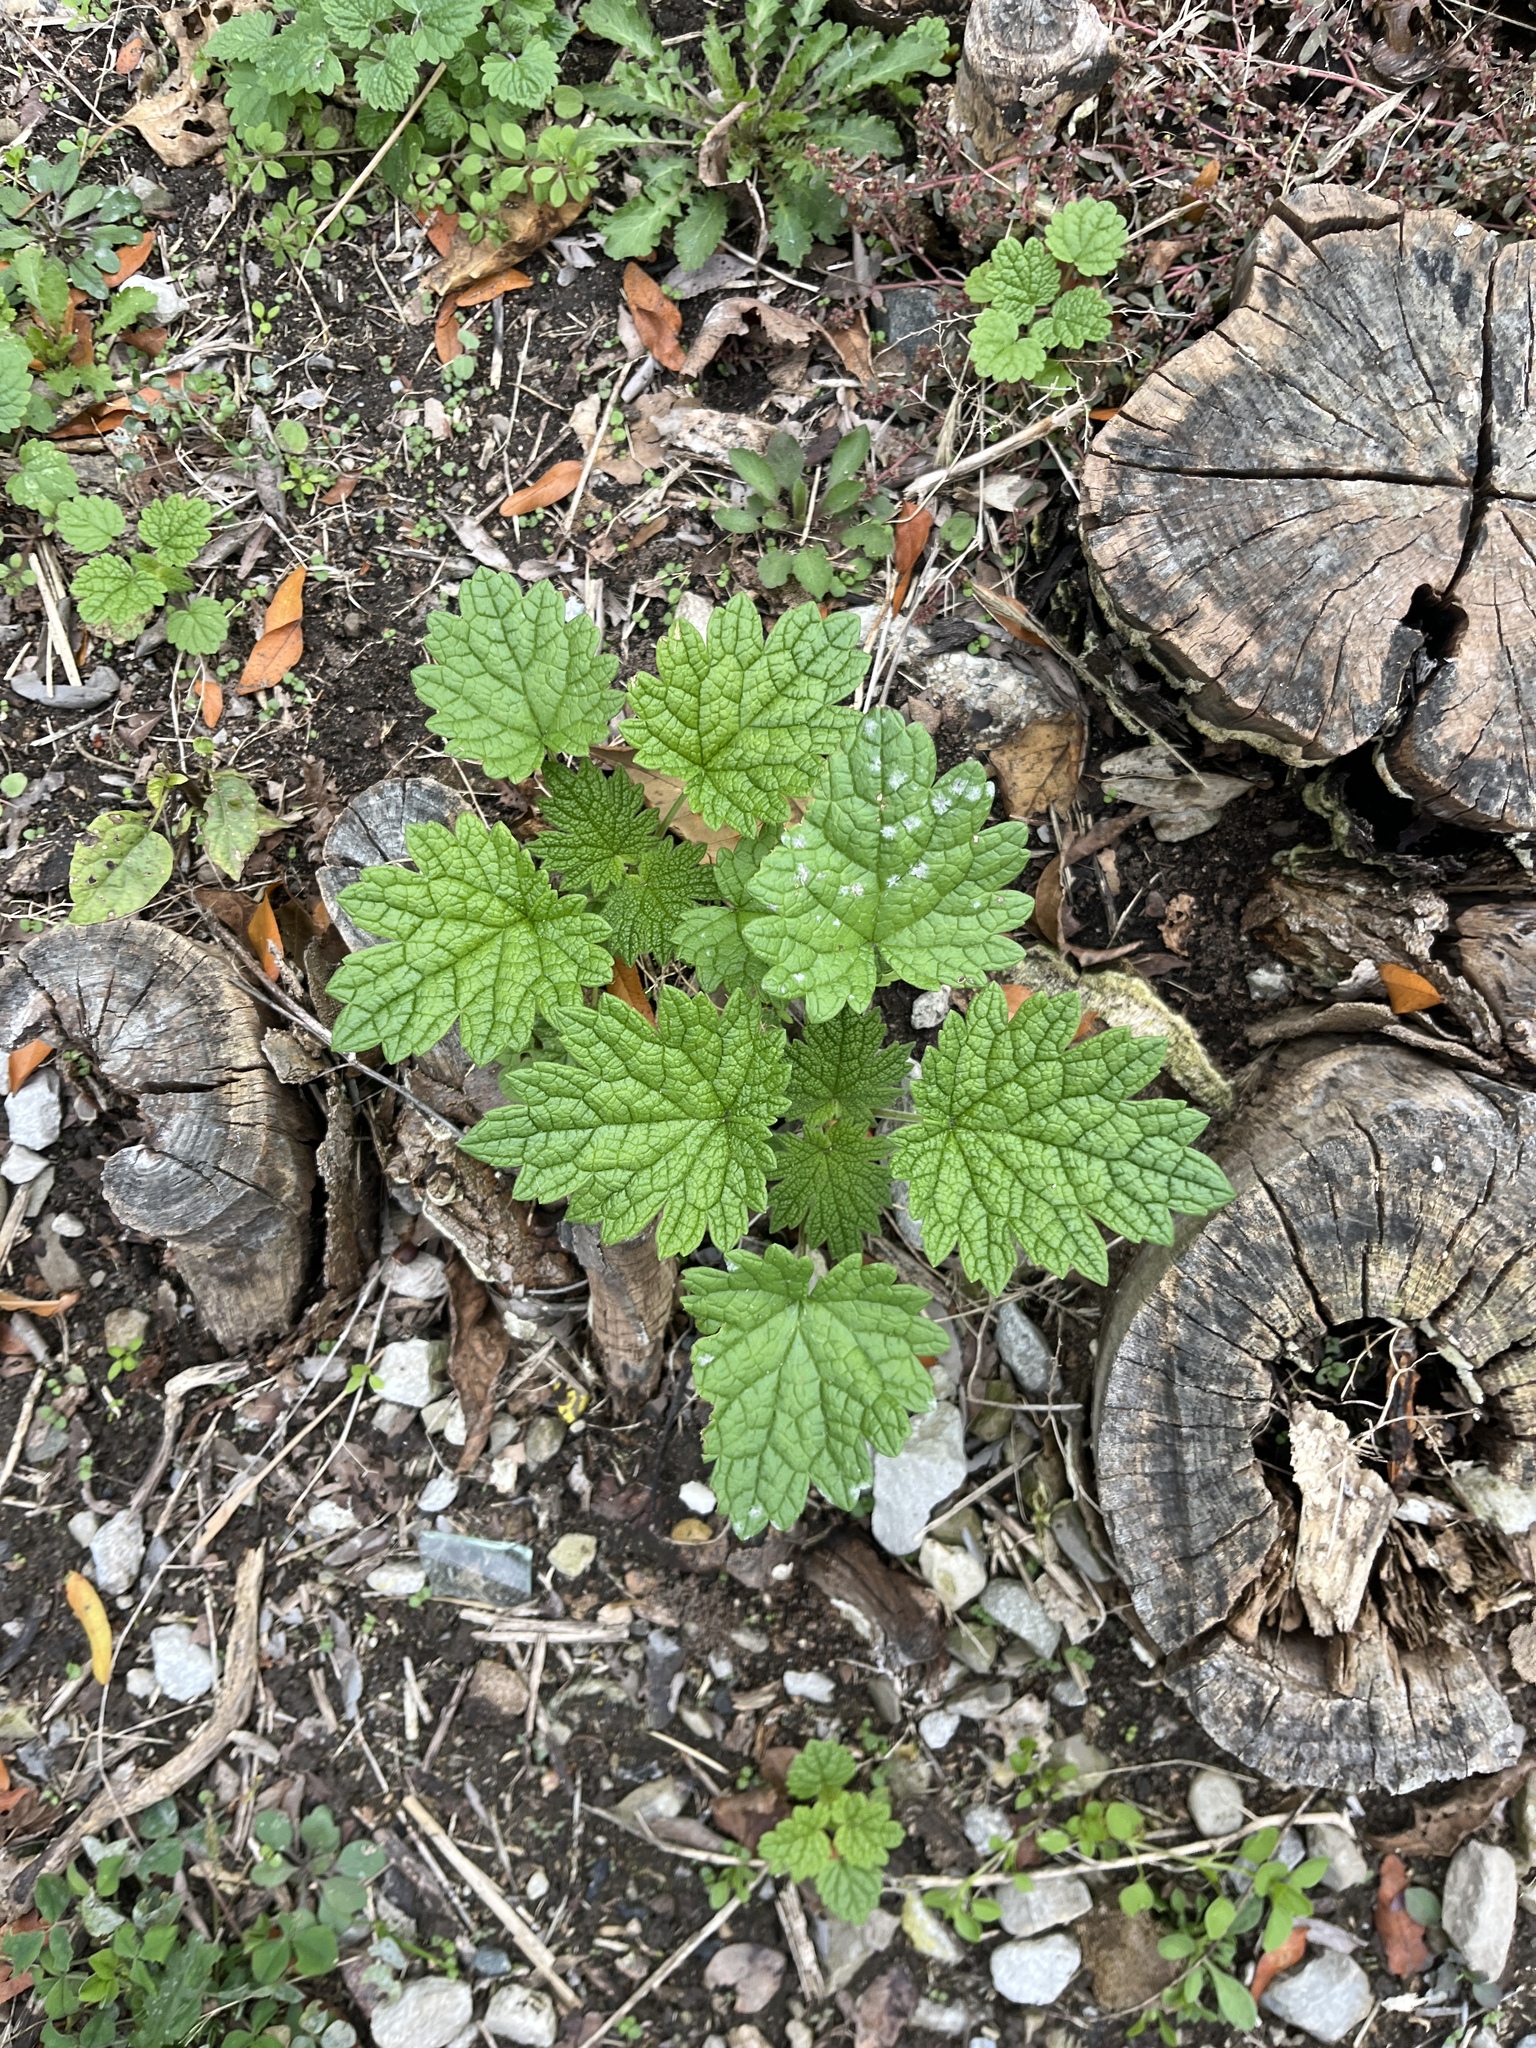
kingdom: Plantae
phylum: Tracheophyta
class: Magnoliopsida
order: Lamiales
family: Lamiaceae
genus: Leonurus
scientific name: Leonurus cardiaca
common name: Motherwort
